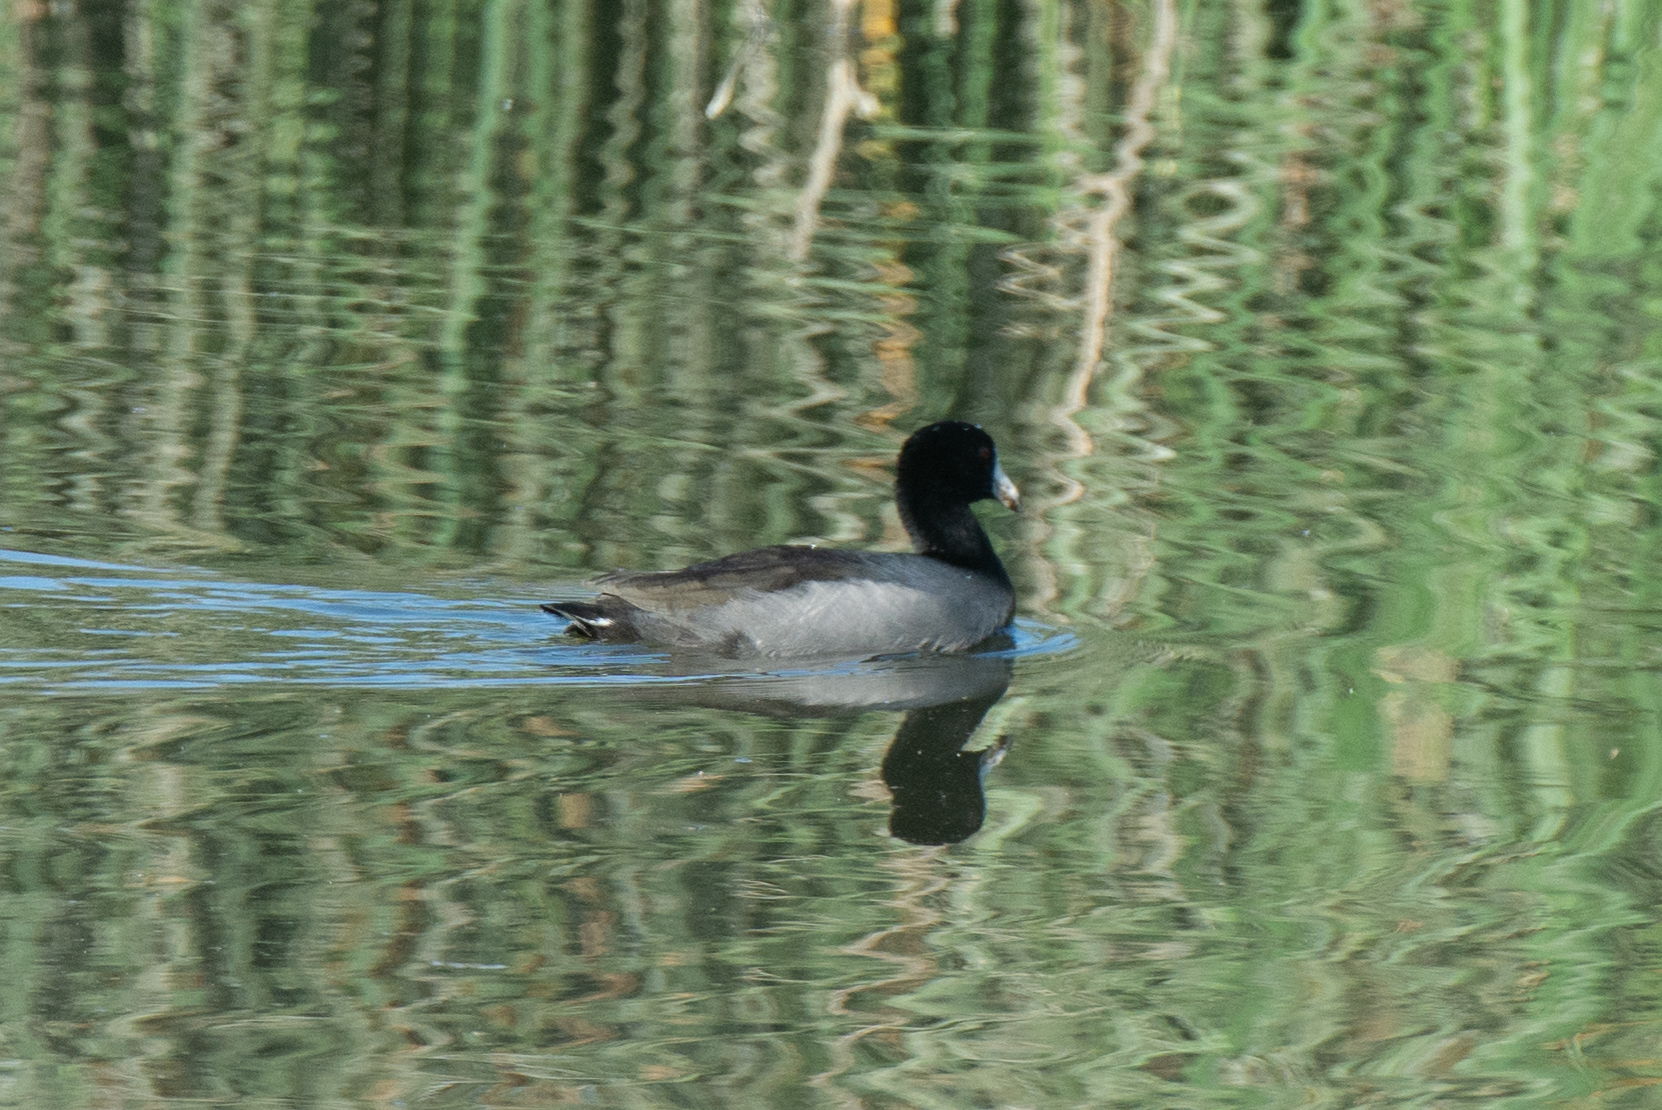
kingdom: Animalia
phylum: Chordata
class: Aves
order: Gruiformes
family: Rallidae
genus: Fulica
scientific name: Fulica americana
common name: American coot
